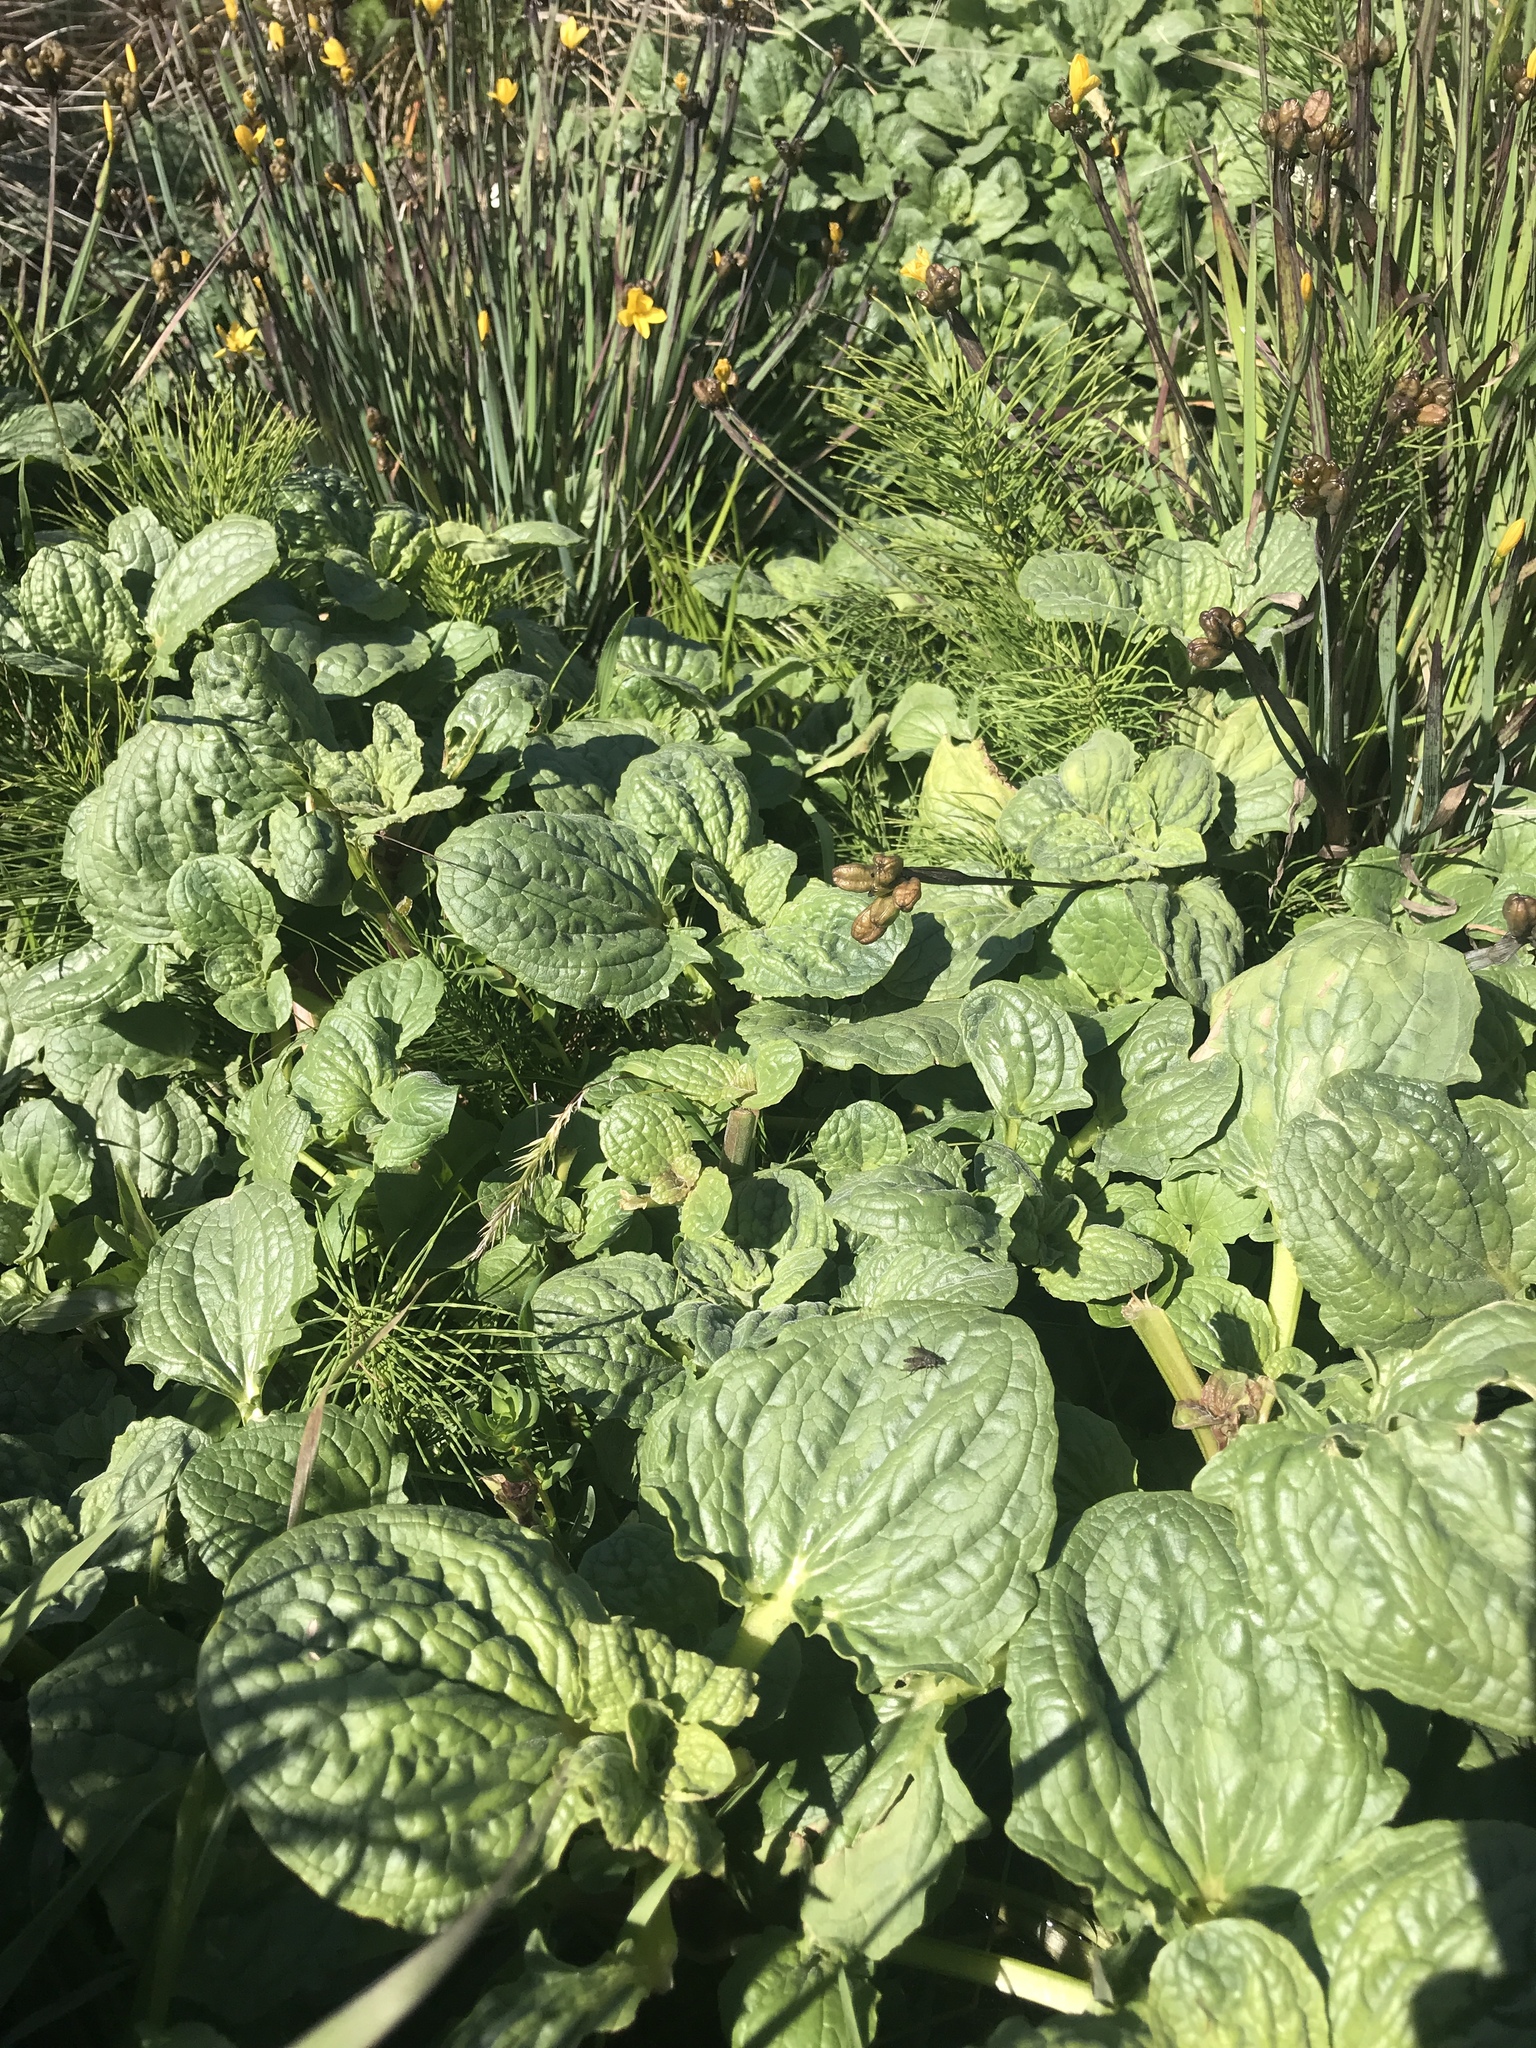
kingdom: Plantae
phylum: Tracheophyta
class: Magnoliopsida
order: Lamiales
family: Phrymaceae
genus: Erythranthe
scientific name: Erythranthe grandis
